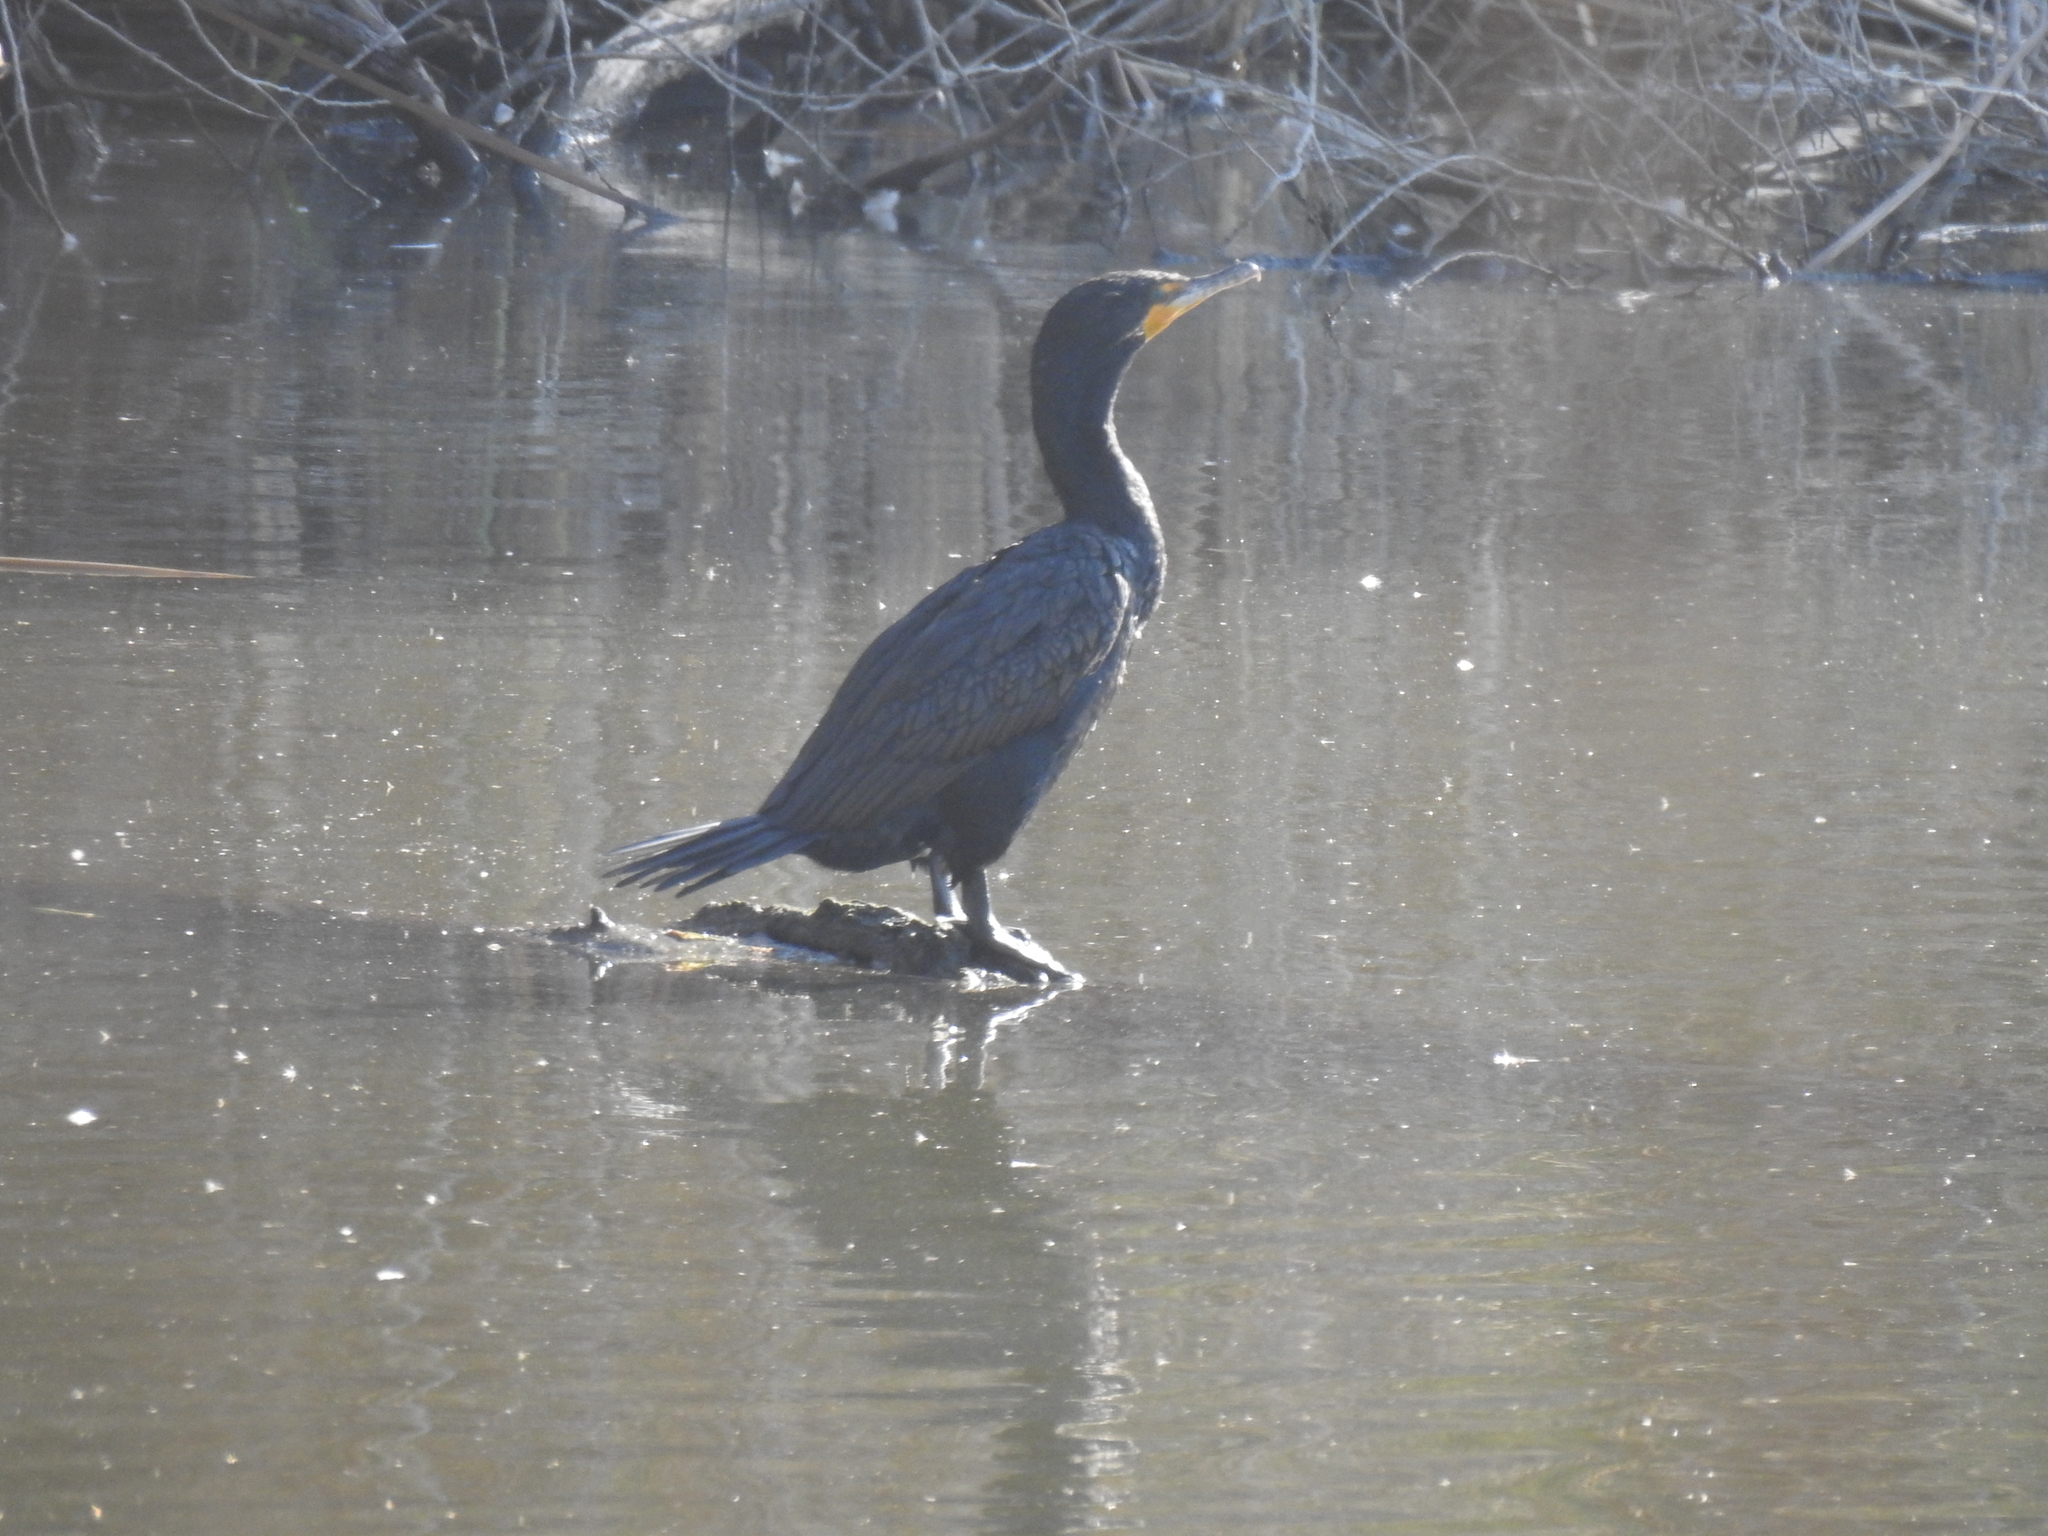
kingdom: Animalia
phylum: Chordata
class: Aves
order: Suliformes
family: Phalacrocoracidae
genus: Phalacrocorax
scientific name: Phalacrocorax auritus
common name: Double-crested cormorant
